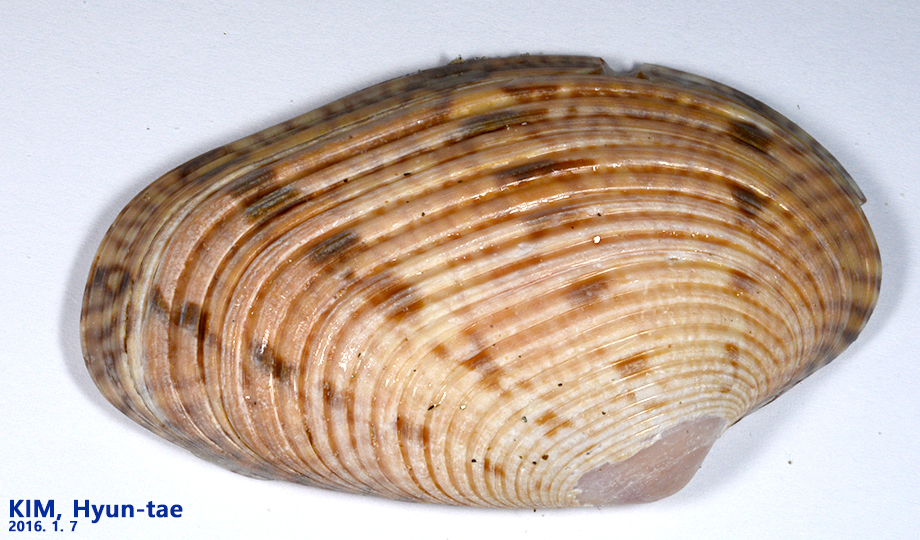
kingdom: Animalia
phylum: Mollusca
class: Bivalvia
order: Venerida
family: Veneridae
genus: Paphia
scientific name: Paphia euglypta
